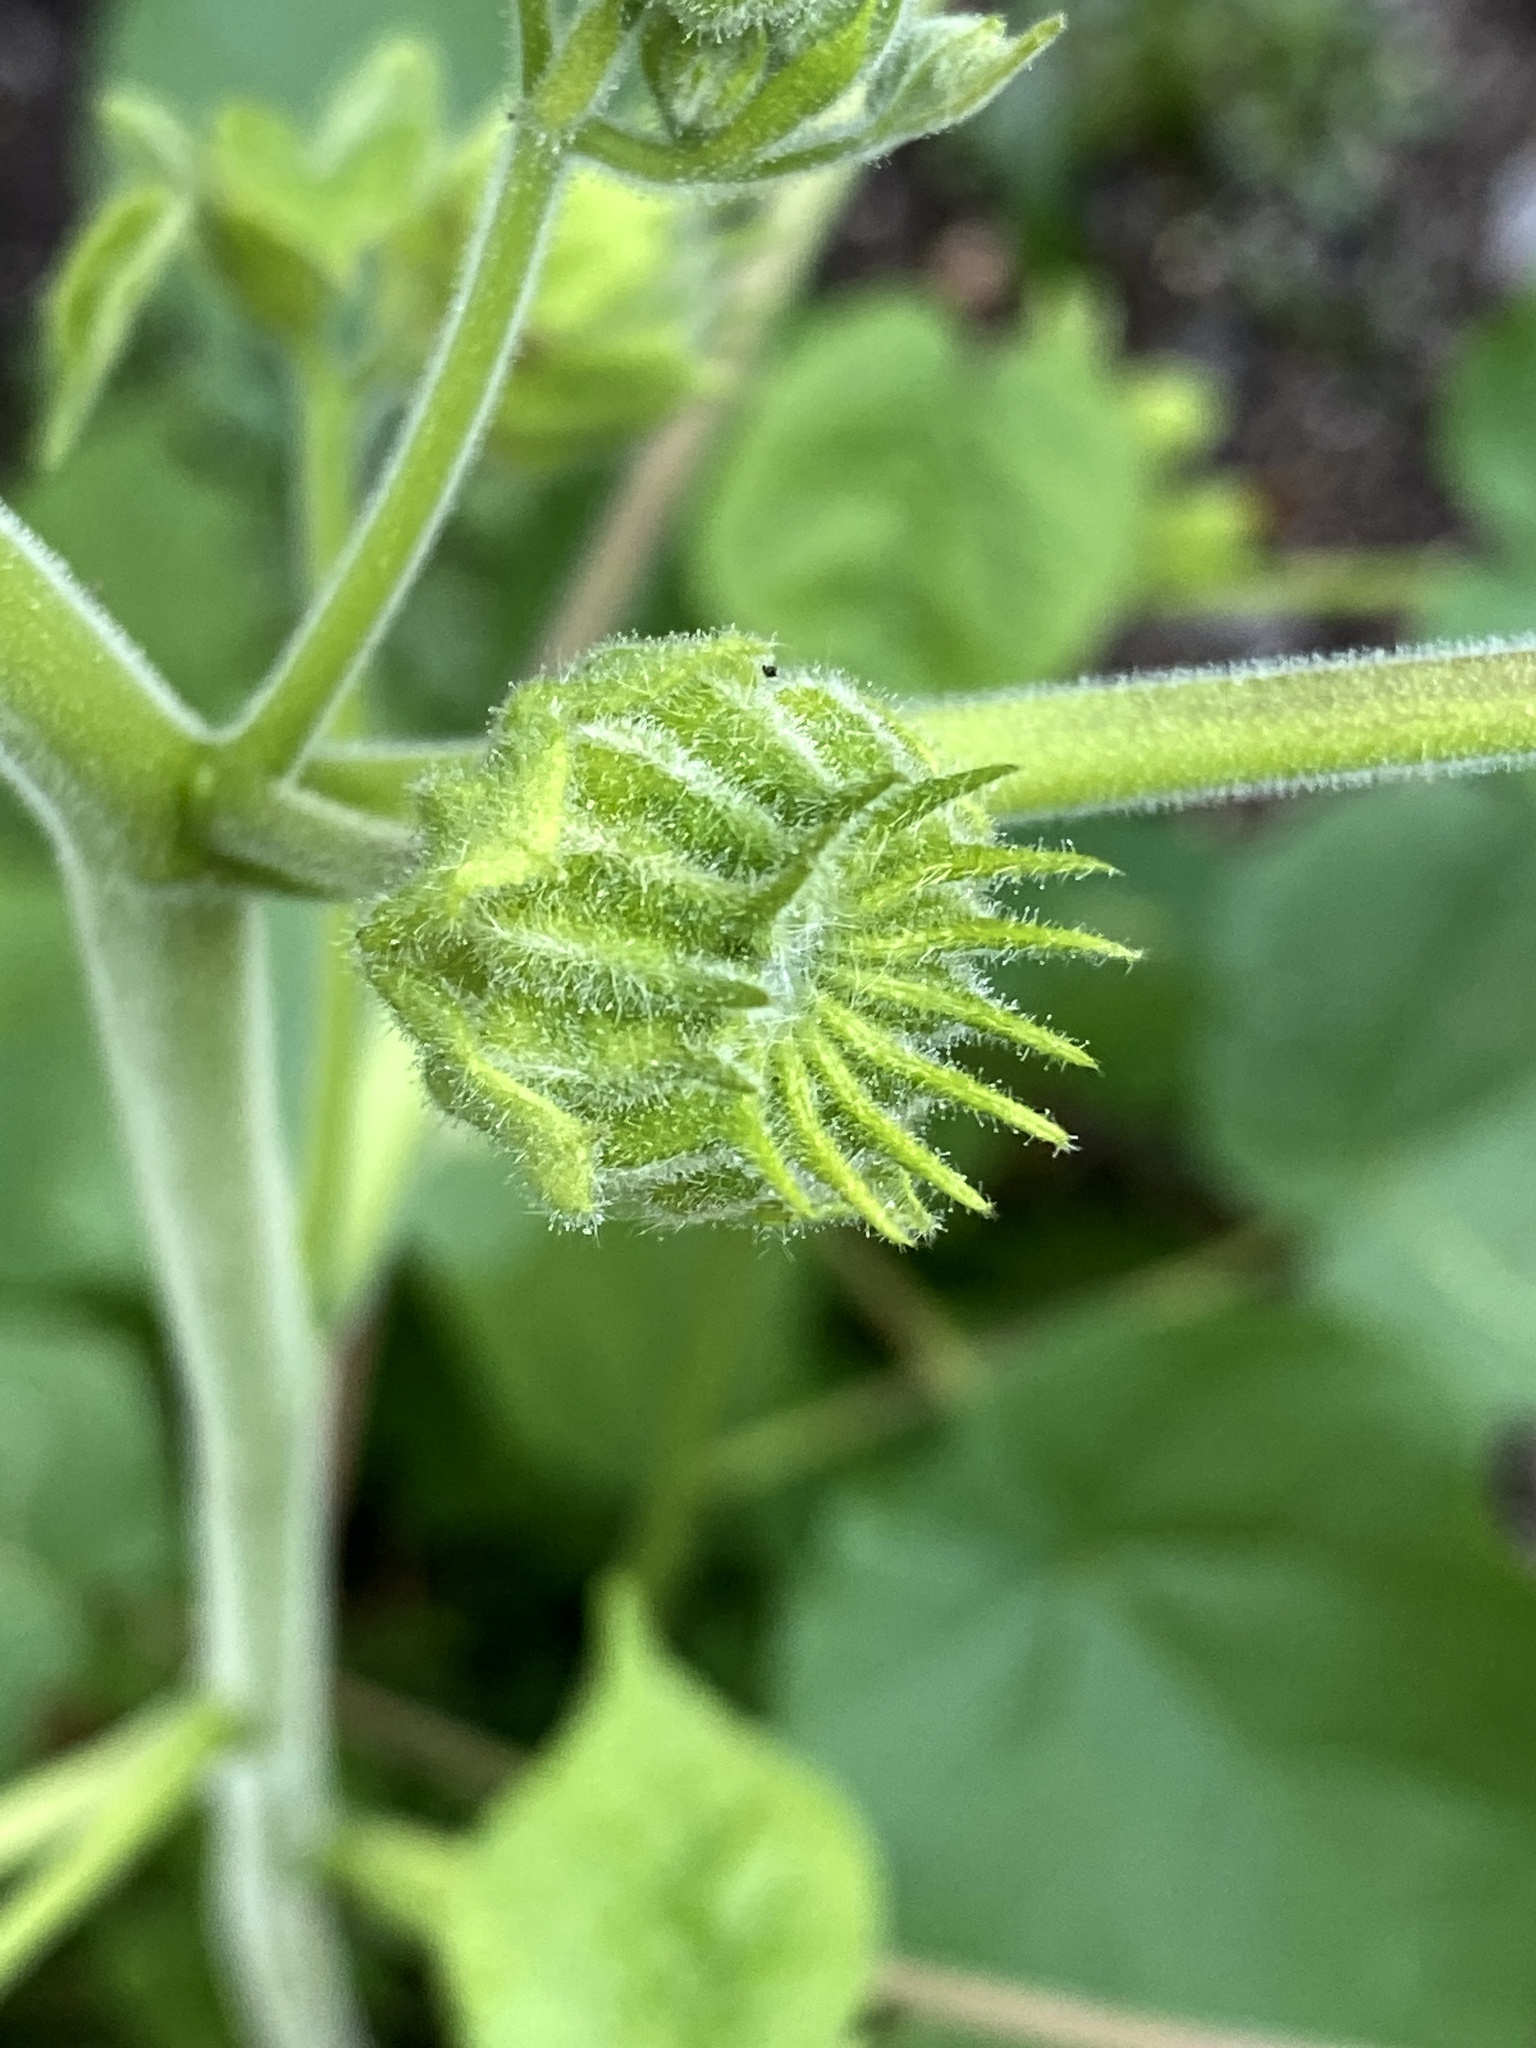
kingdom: Plantae
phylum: Tracheophyta
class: Magnoliopsida
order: Malvales
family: Malvaceae
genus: Abutilon
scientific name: Abutilon theophrasti
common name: Velvetleaf
